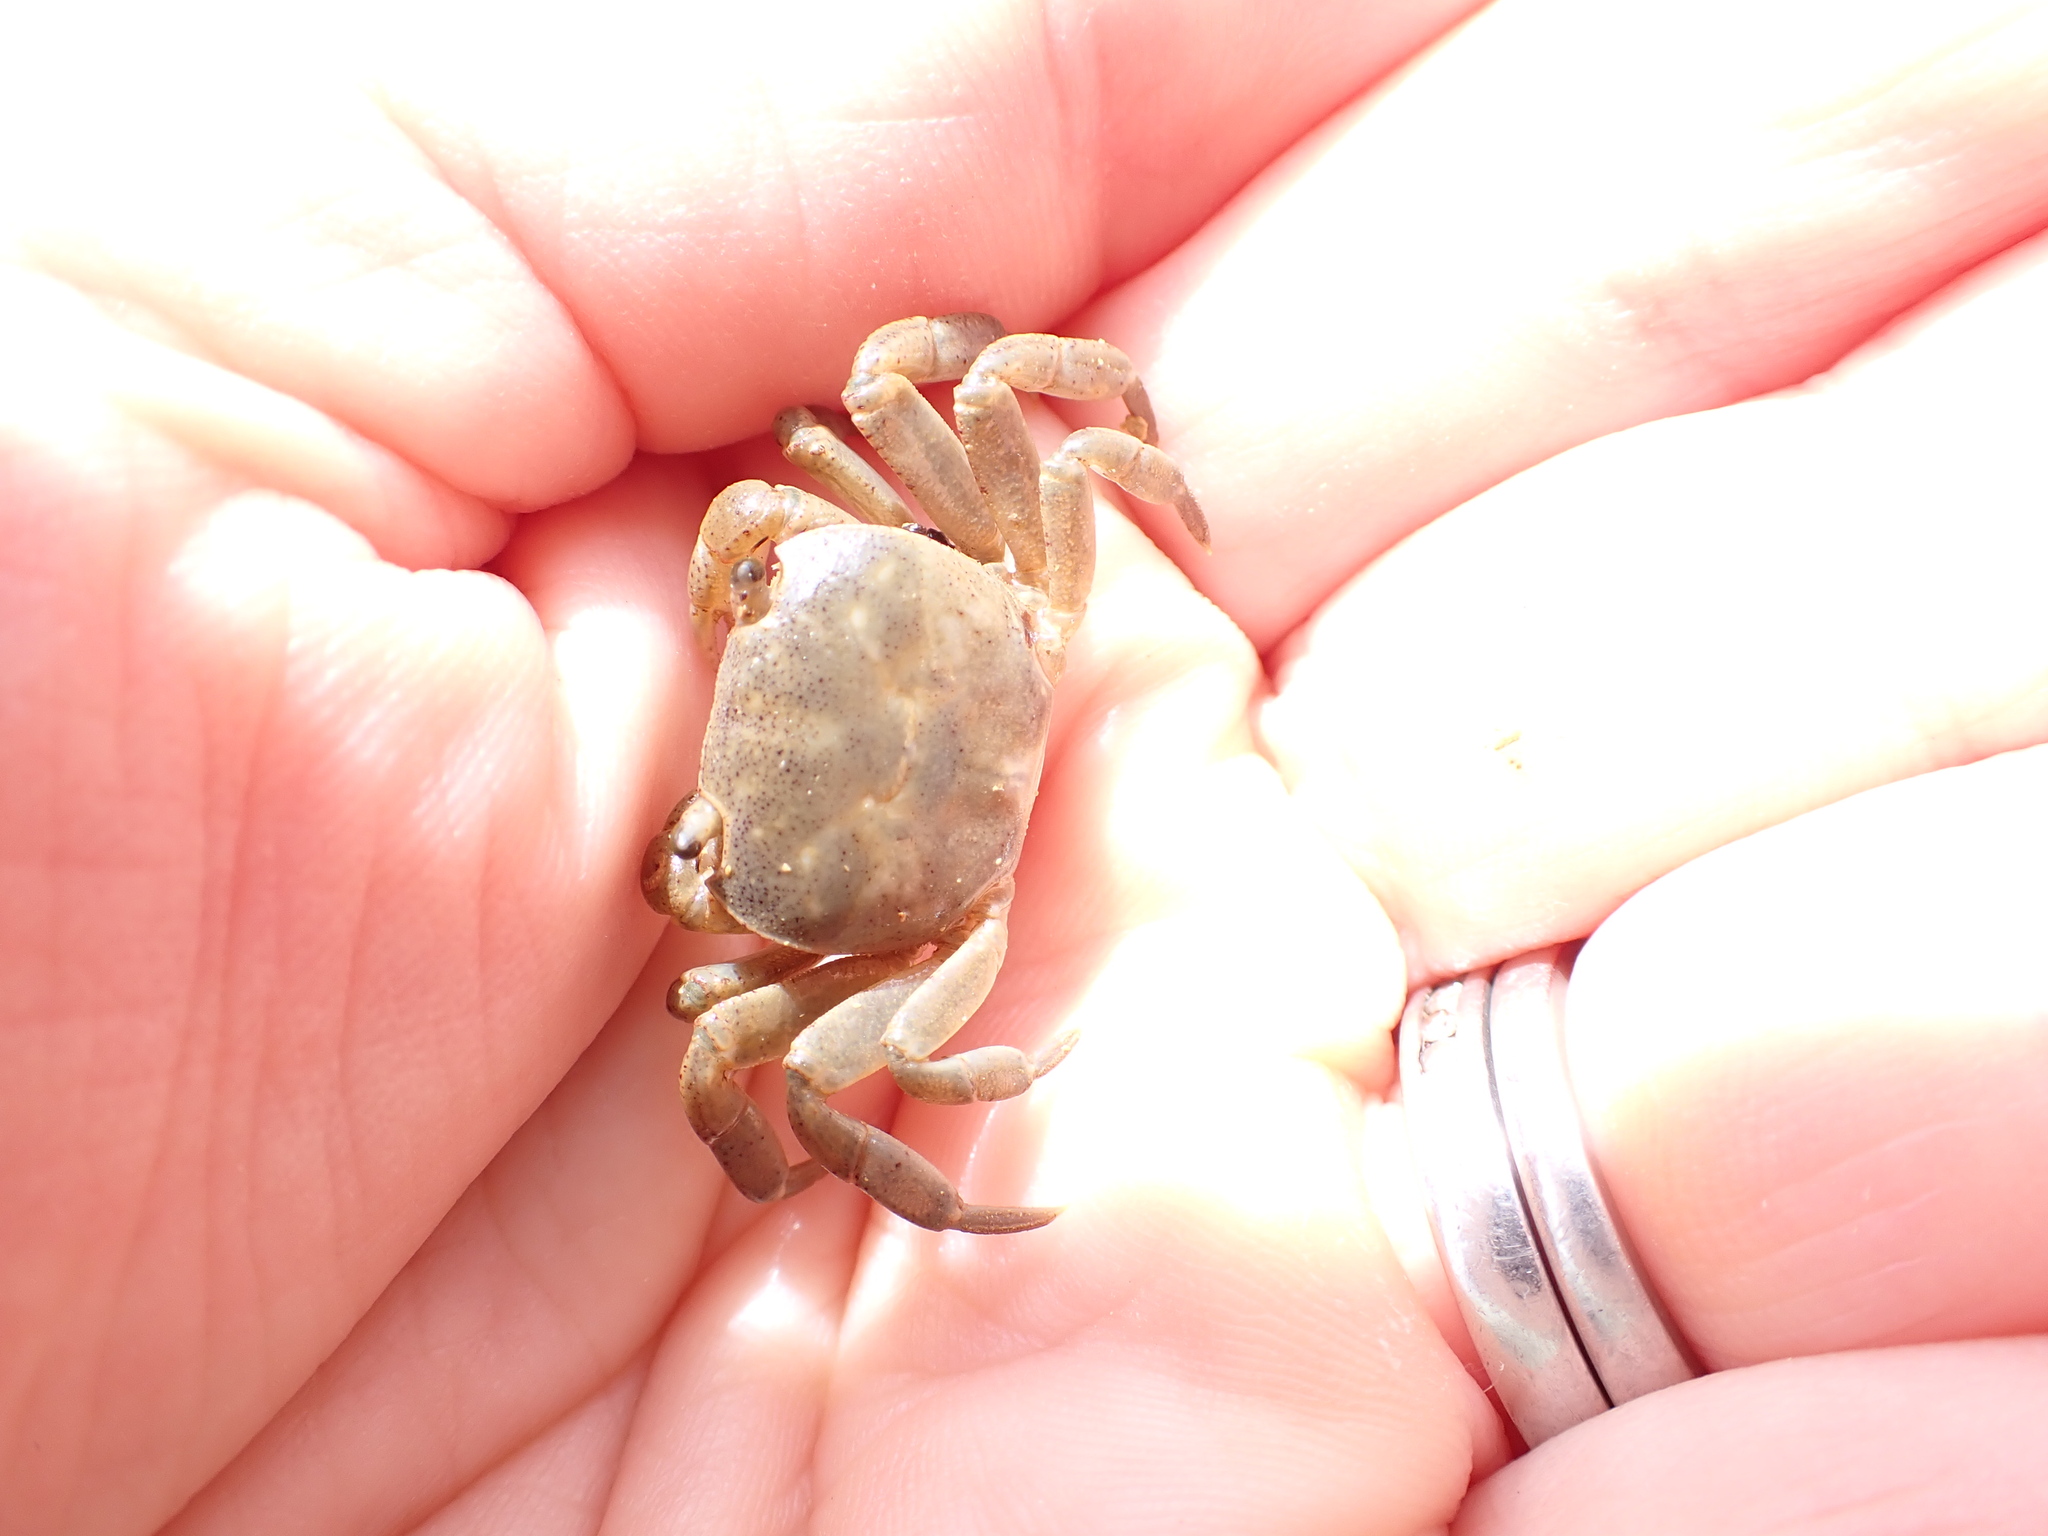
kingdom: Animalia
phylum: Arthropoda
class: Malacostraca
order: Decapoda
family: Varunidae
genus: Cyclograpsus
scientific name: Cyclograpsus lavauxi
